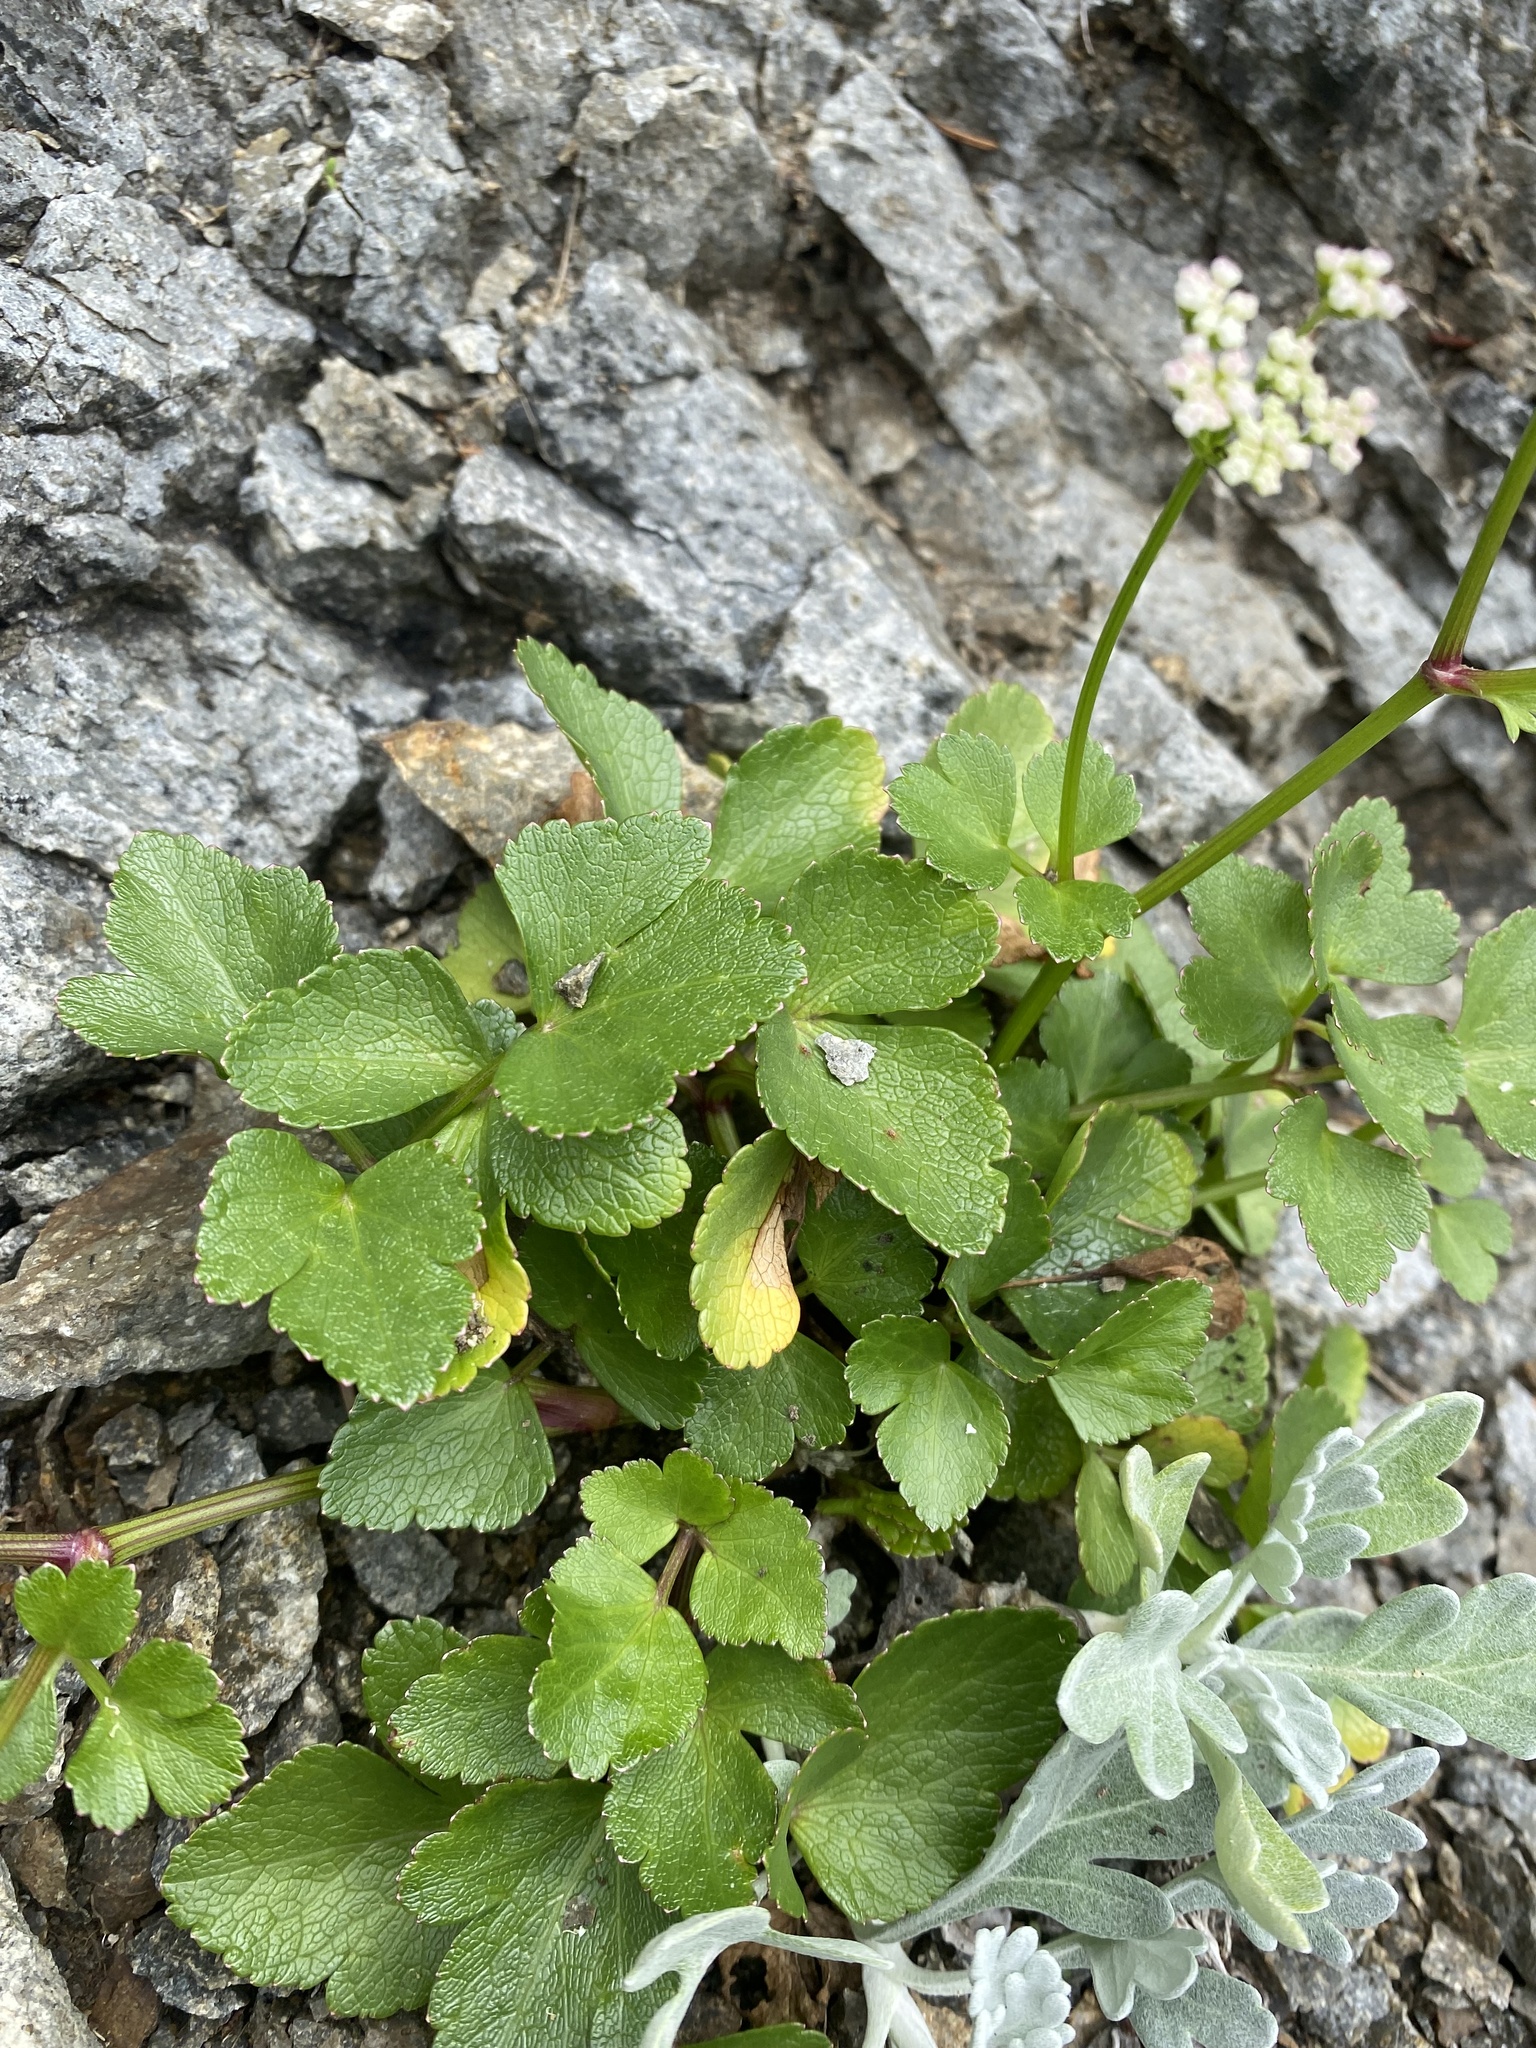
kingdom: Plantae
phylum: Tracheophyta
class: Magnoliopsida
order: Apiales
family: Apiaceae
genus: Ligusticum
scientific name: Ligusticum scothicum
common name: Beach lovage
